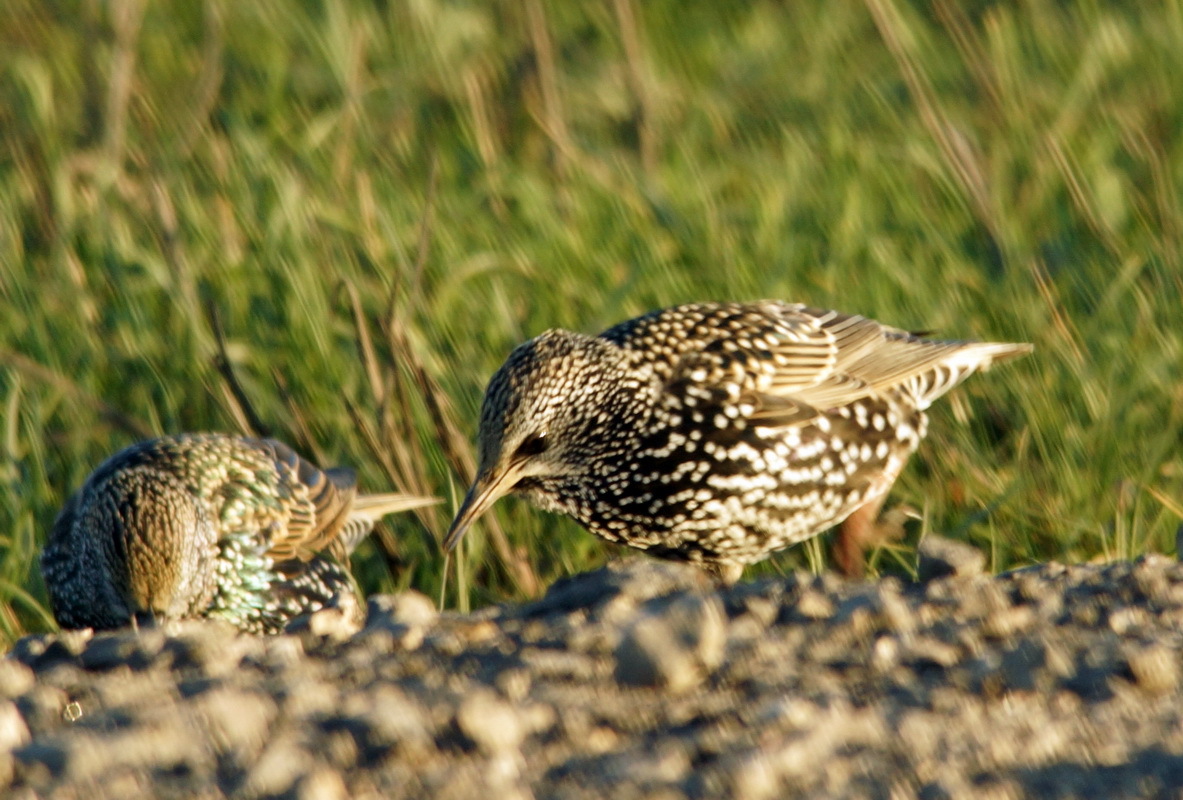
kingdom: Animalia
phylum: Chordata
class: Aves
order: Passeriformes
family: Sturnidae
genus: Sturnus
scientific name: Sturnus vulgaris
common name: Common starling
